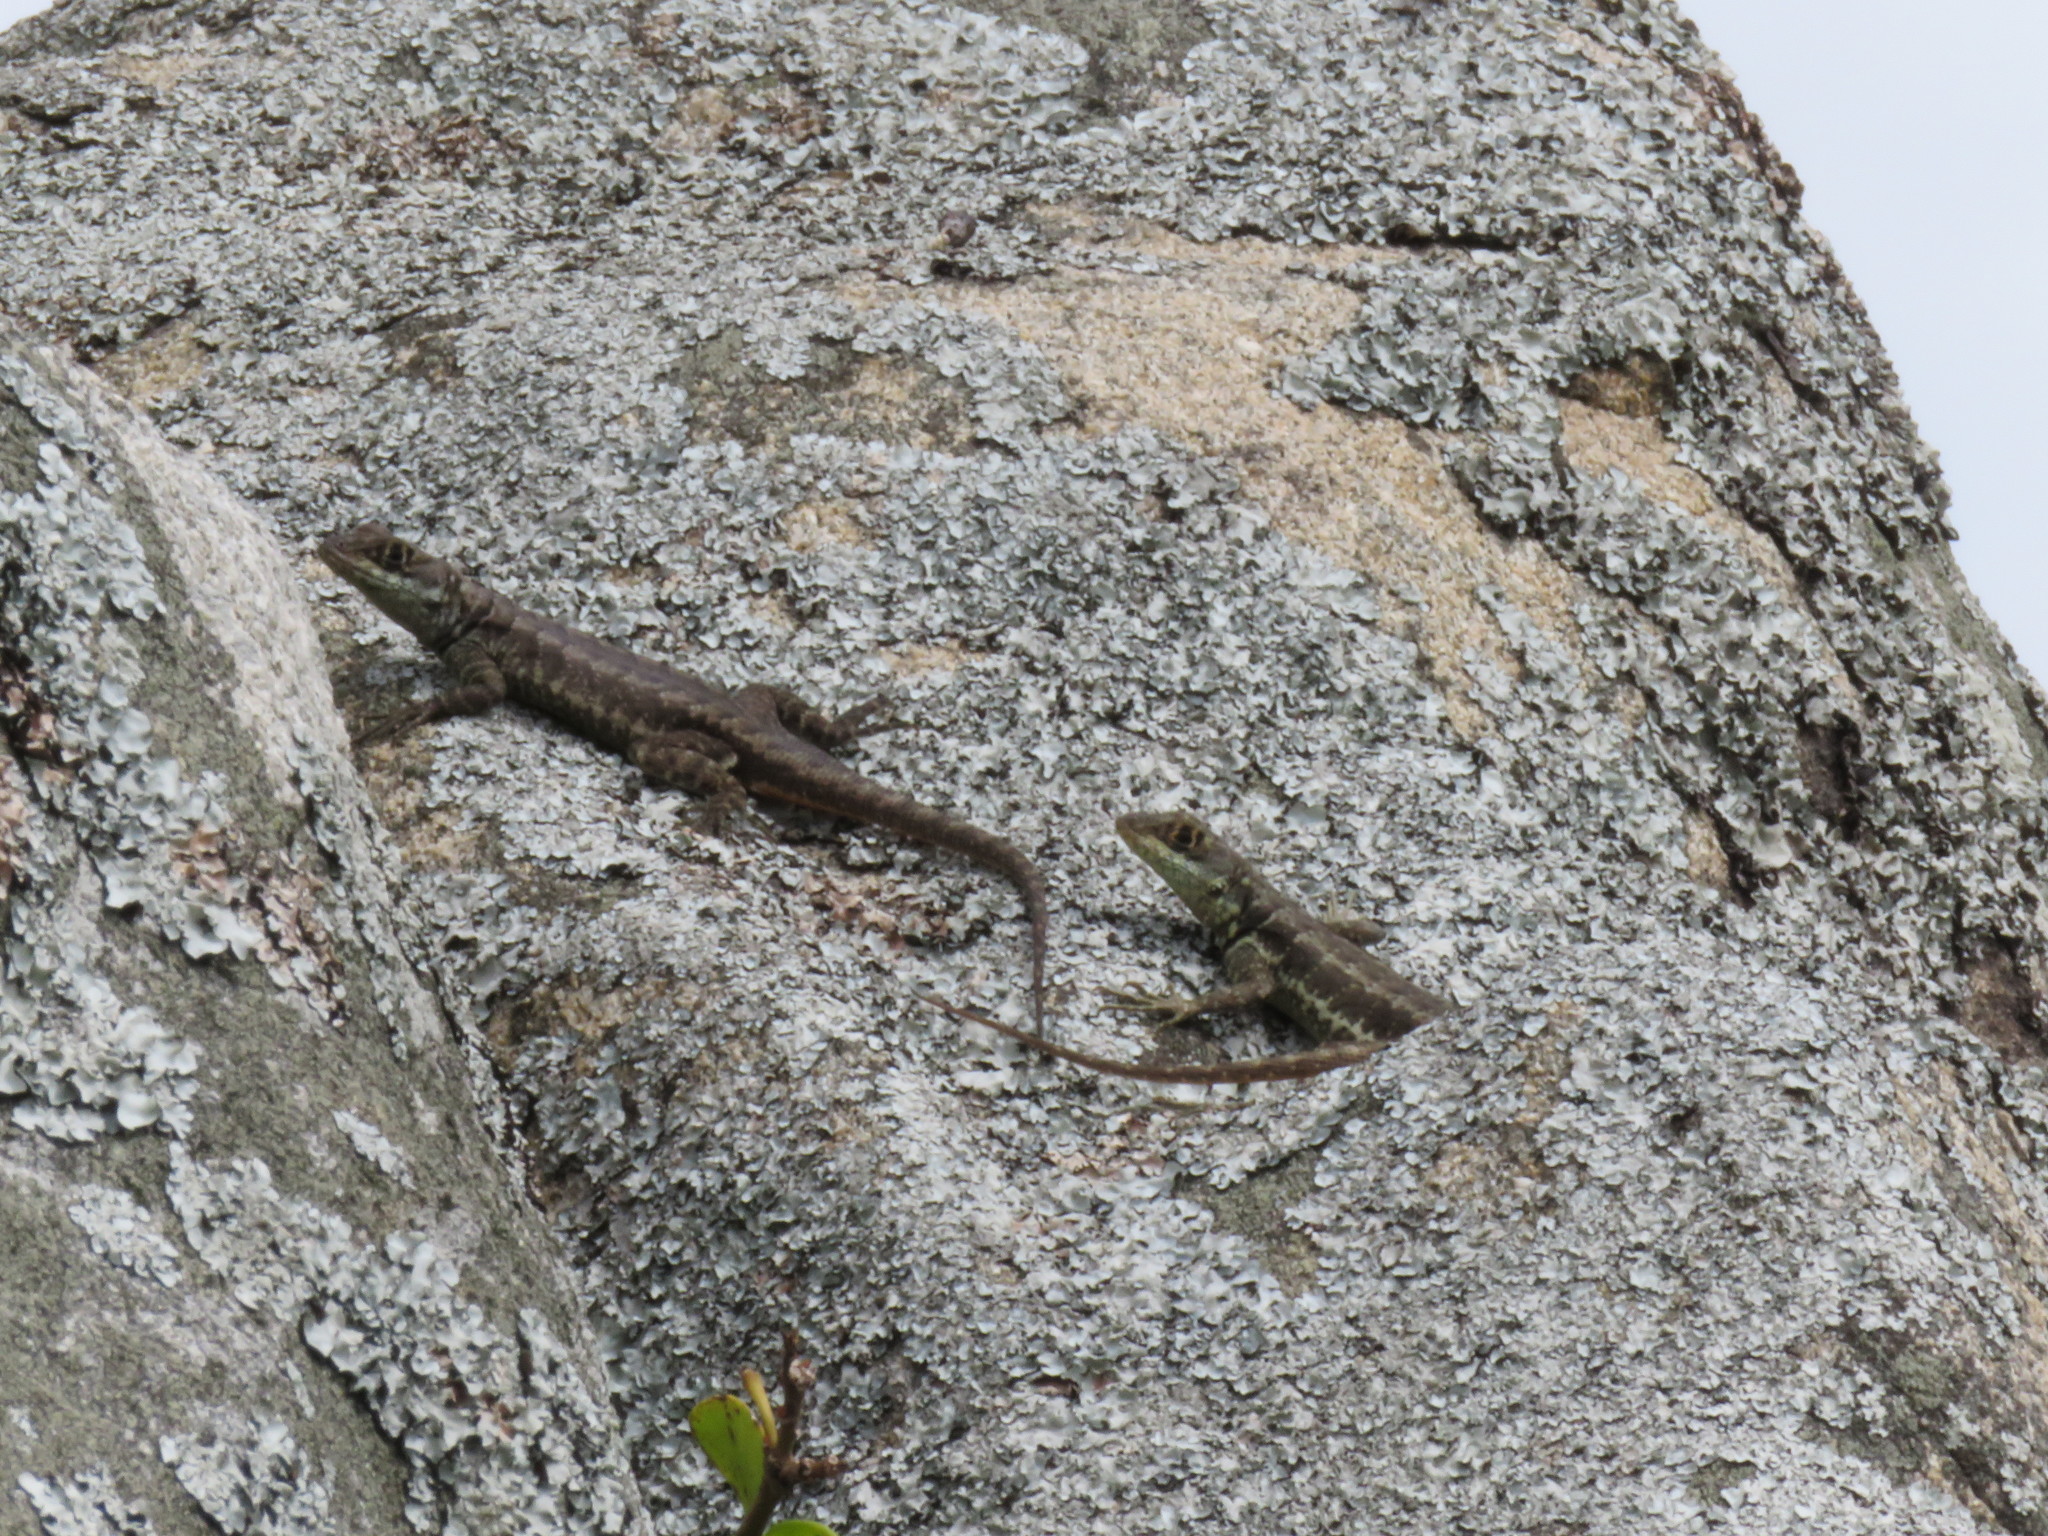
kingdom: Animalia
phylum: Chordata
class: Squamata
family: Tropiduridae
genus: Tropidurus
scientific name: Tropidurus imbituba
